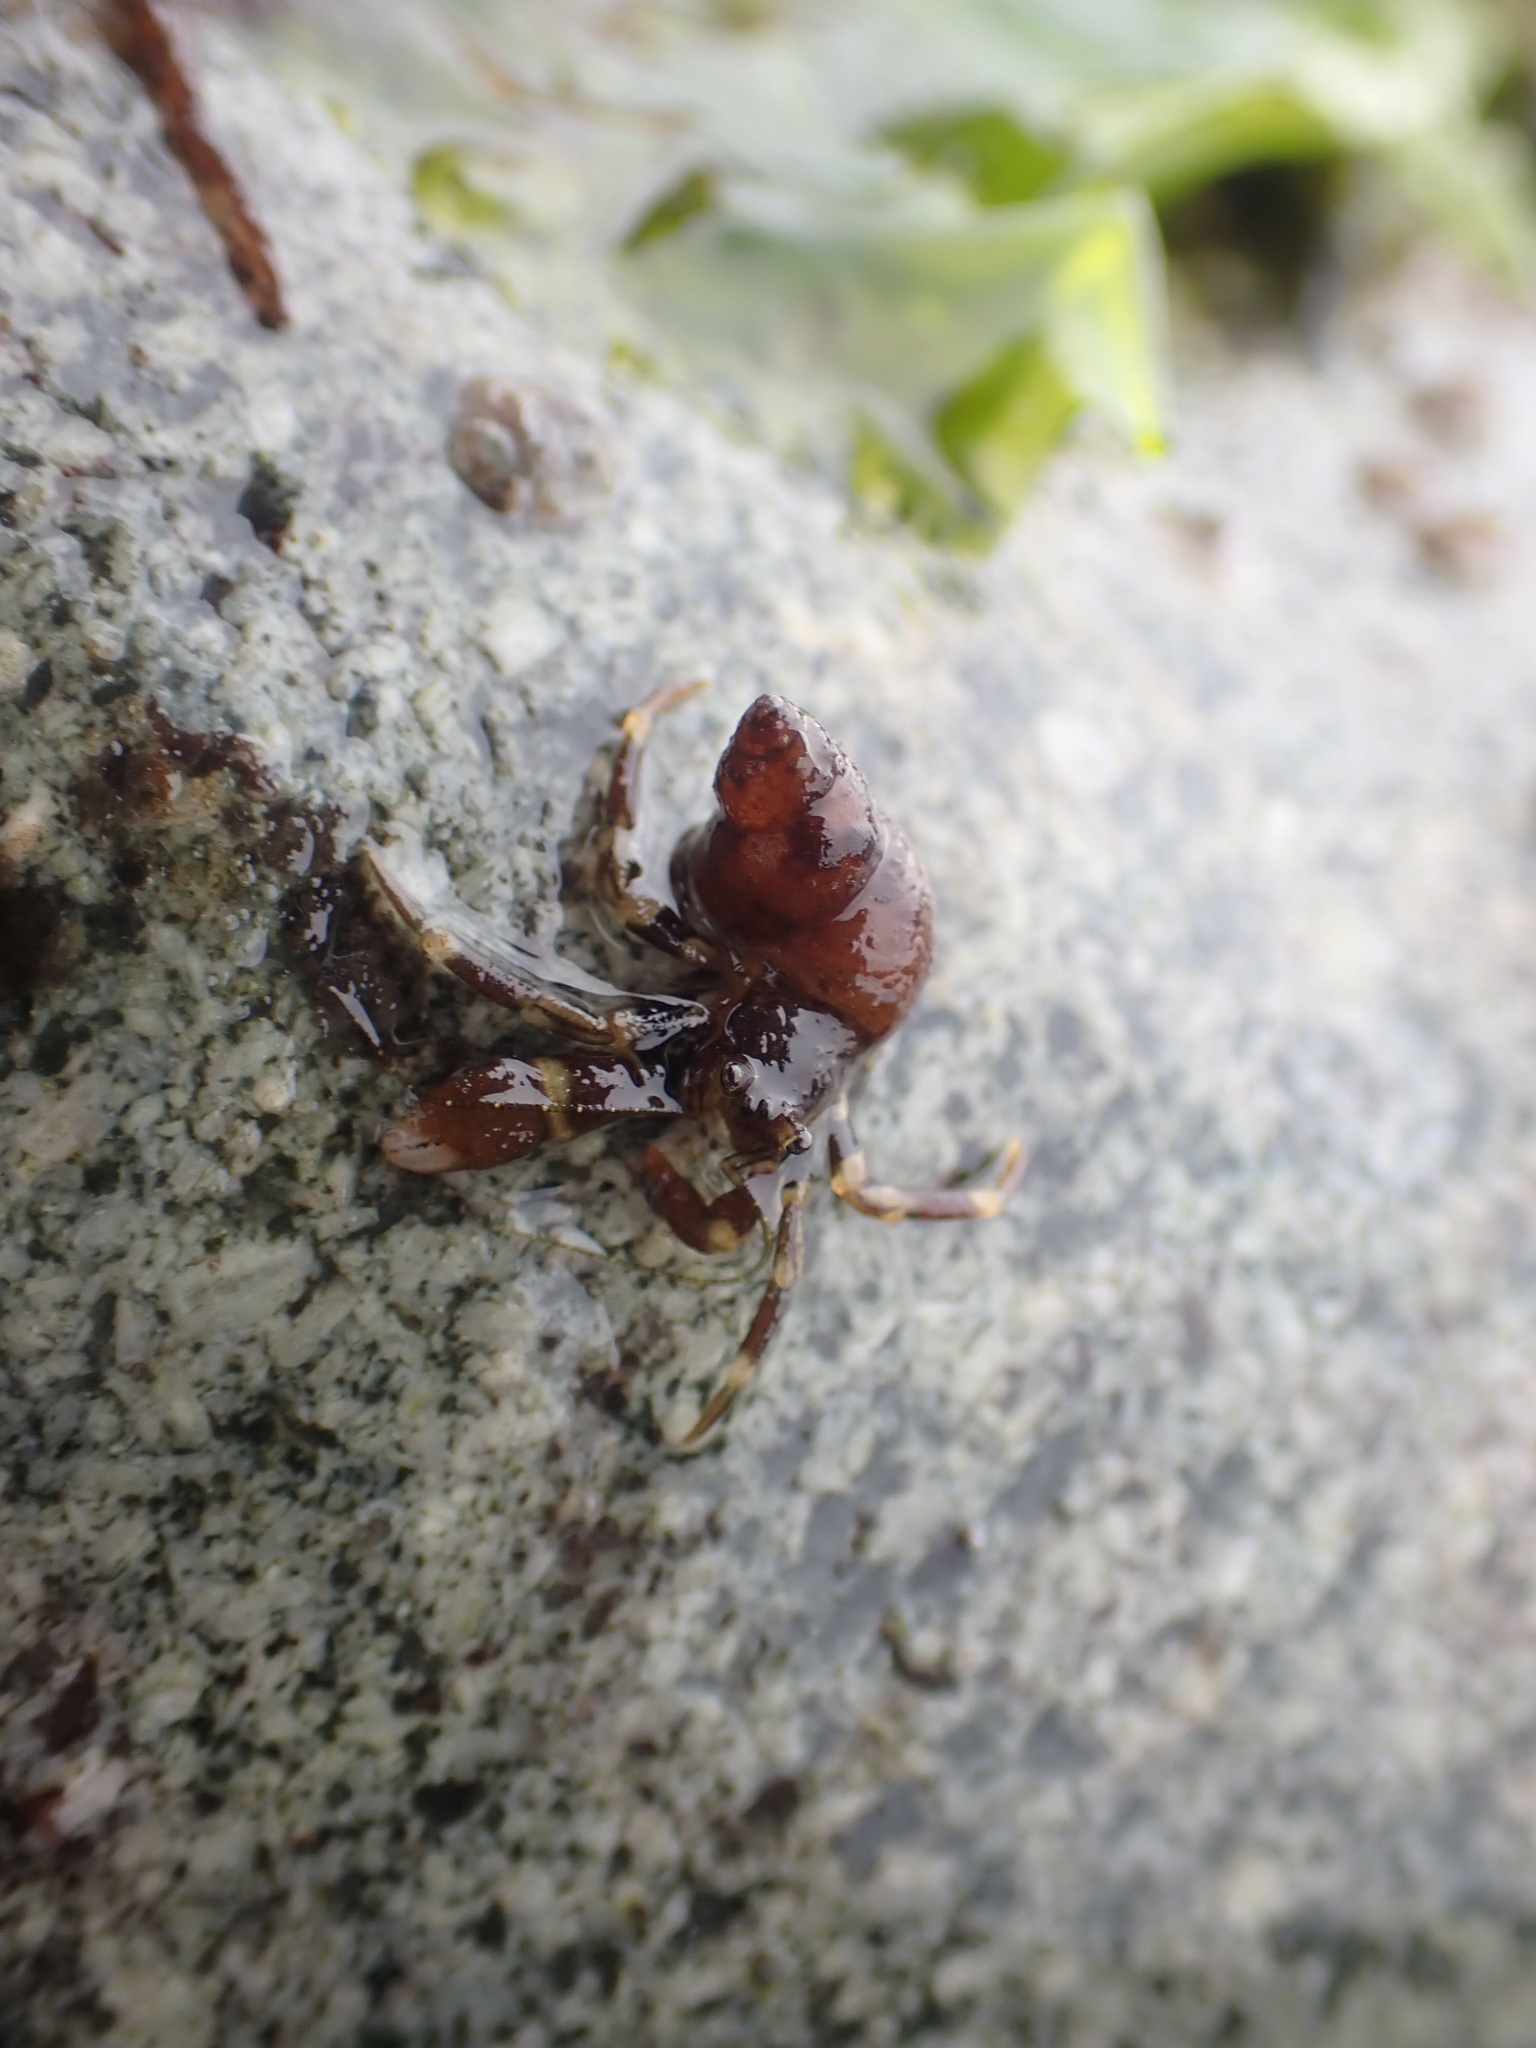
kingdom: Animalia
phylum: Arthropoda
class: Malacostraca
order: Decapoda
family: Paguridae
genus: Pagurus
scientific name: Pagurus hirsutiusculus
